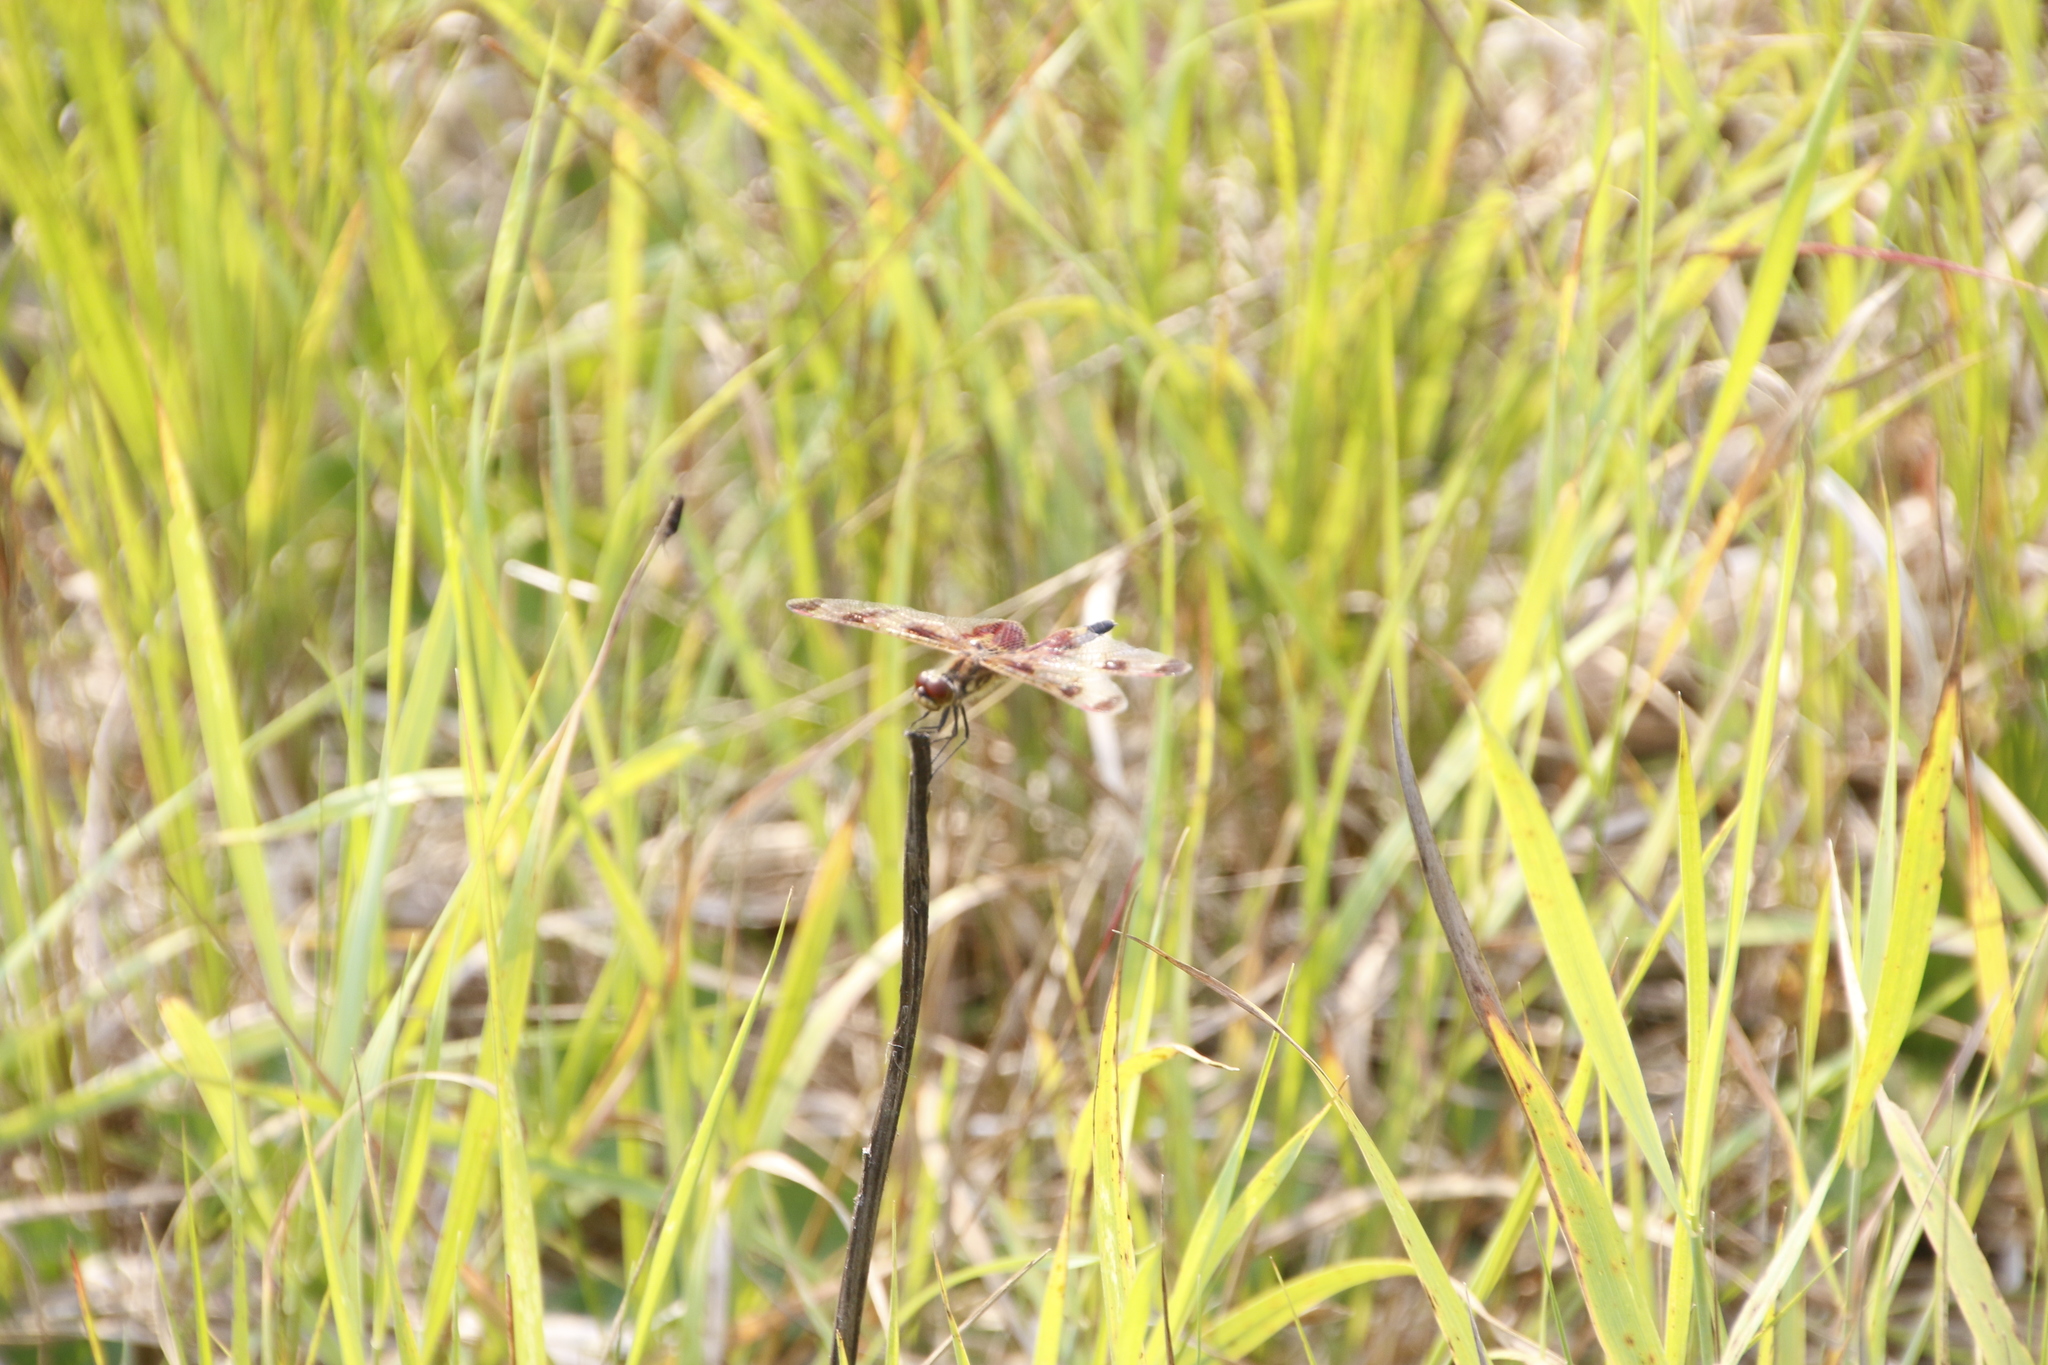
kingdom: Animalia
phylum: Arthropoda
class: Insecta
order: Odonata
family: Libellulidae
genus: Celithemis
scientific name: Celithemis elisa
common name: Calico pennant
